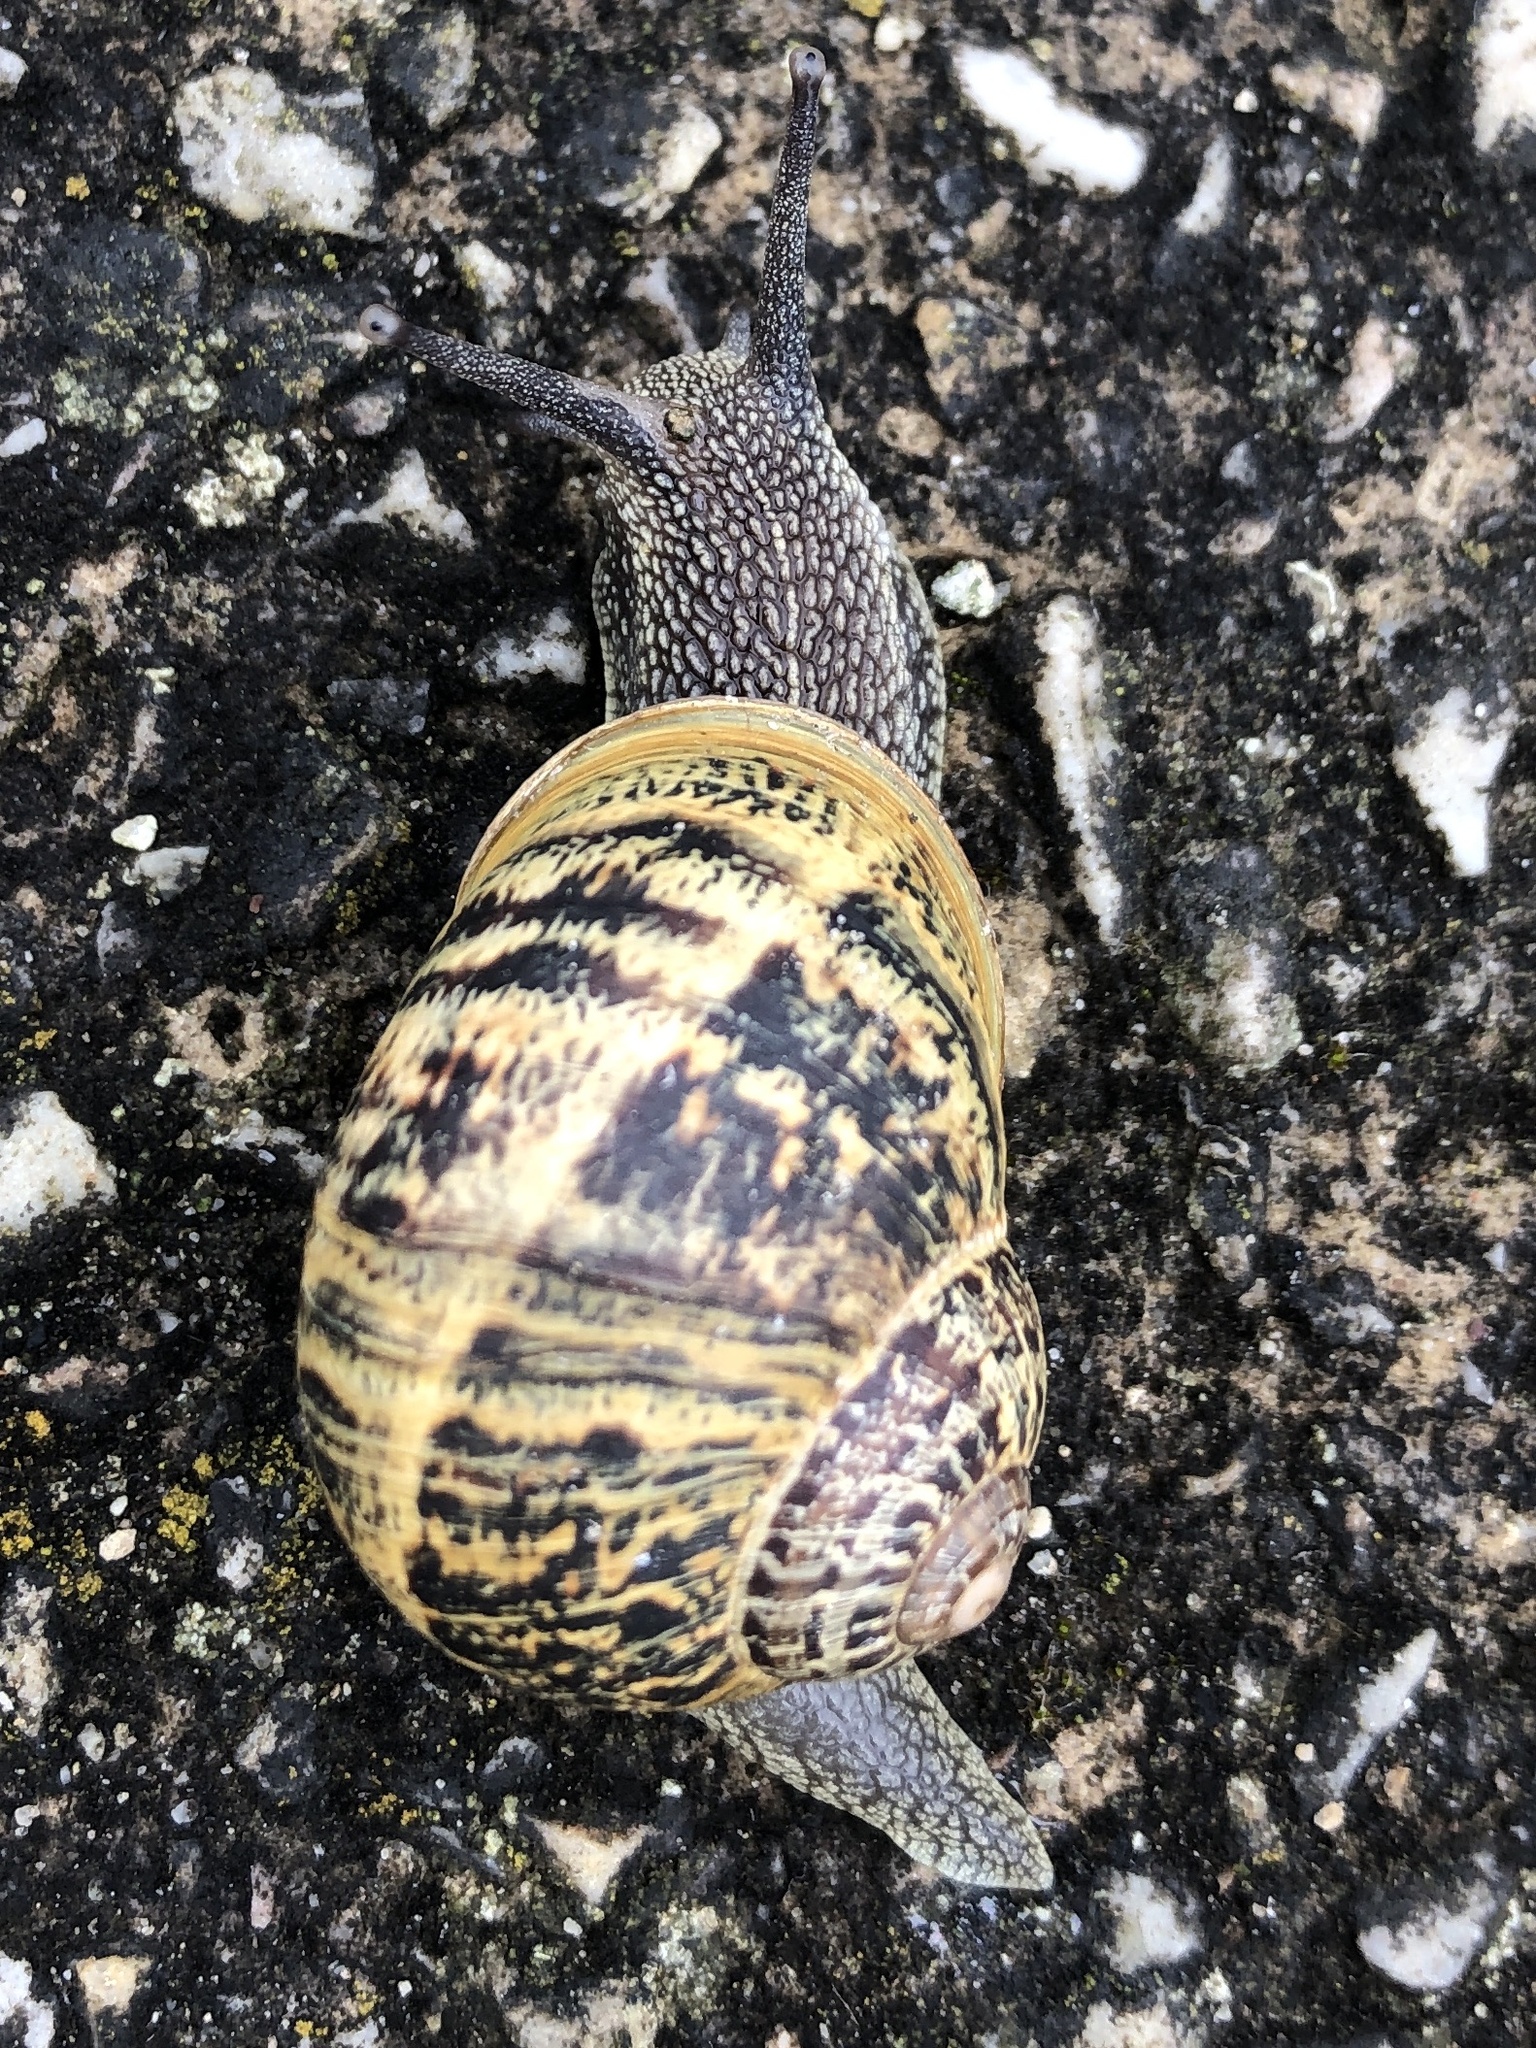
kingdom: Animalia
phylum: Mollusca
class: Gastropoda
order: Stylommatophora
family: Helicidae
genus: Cornu
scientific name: Cornu aspersum
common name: Brown garden snail
